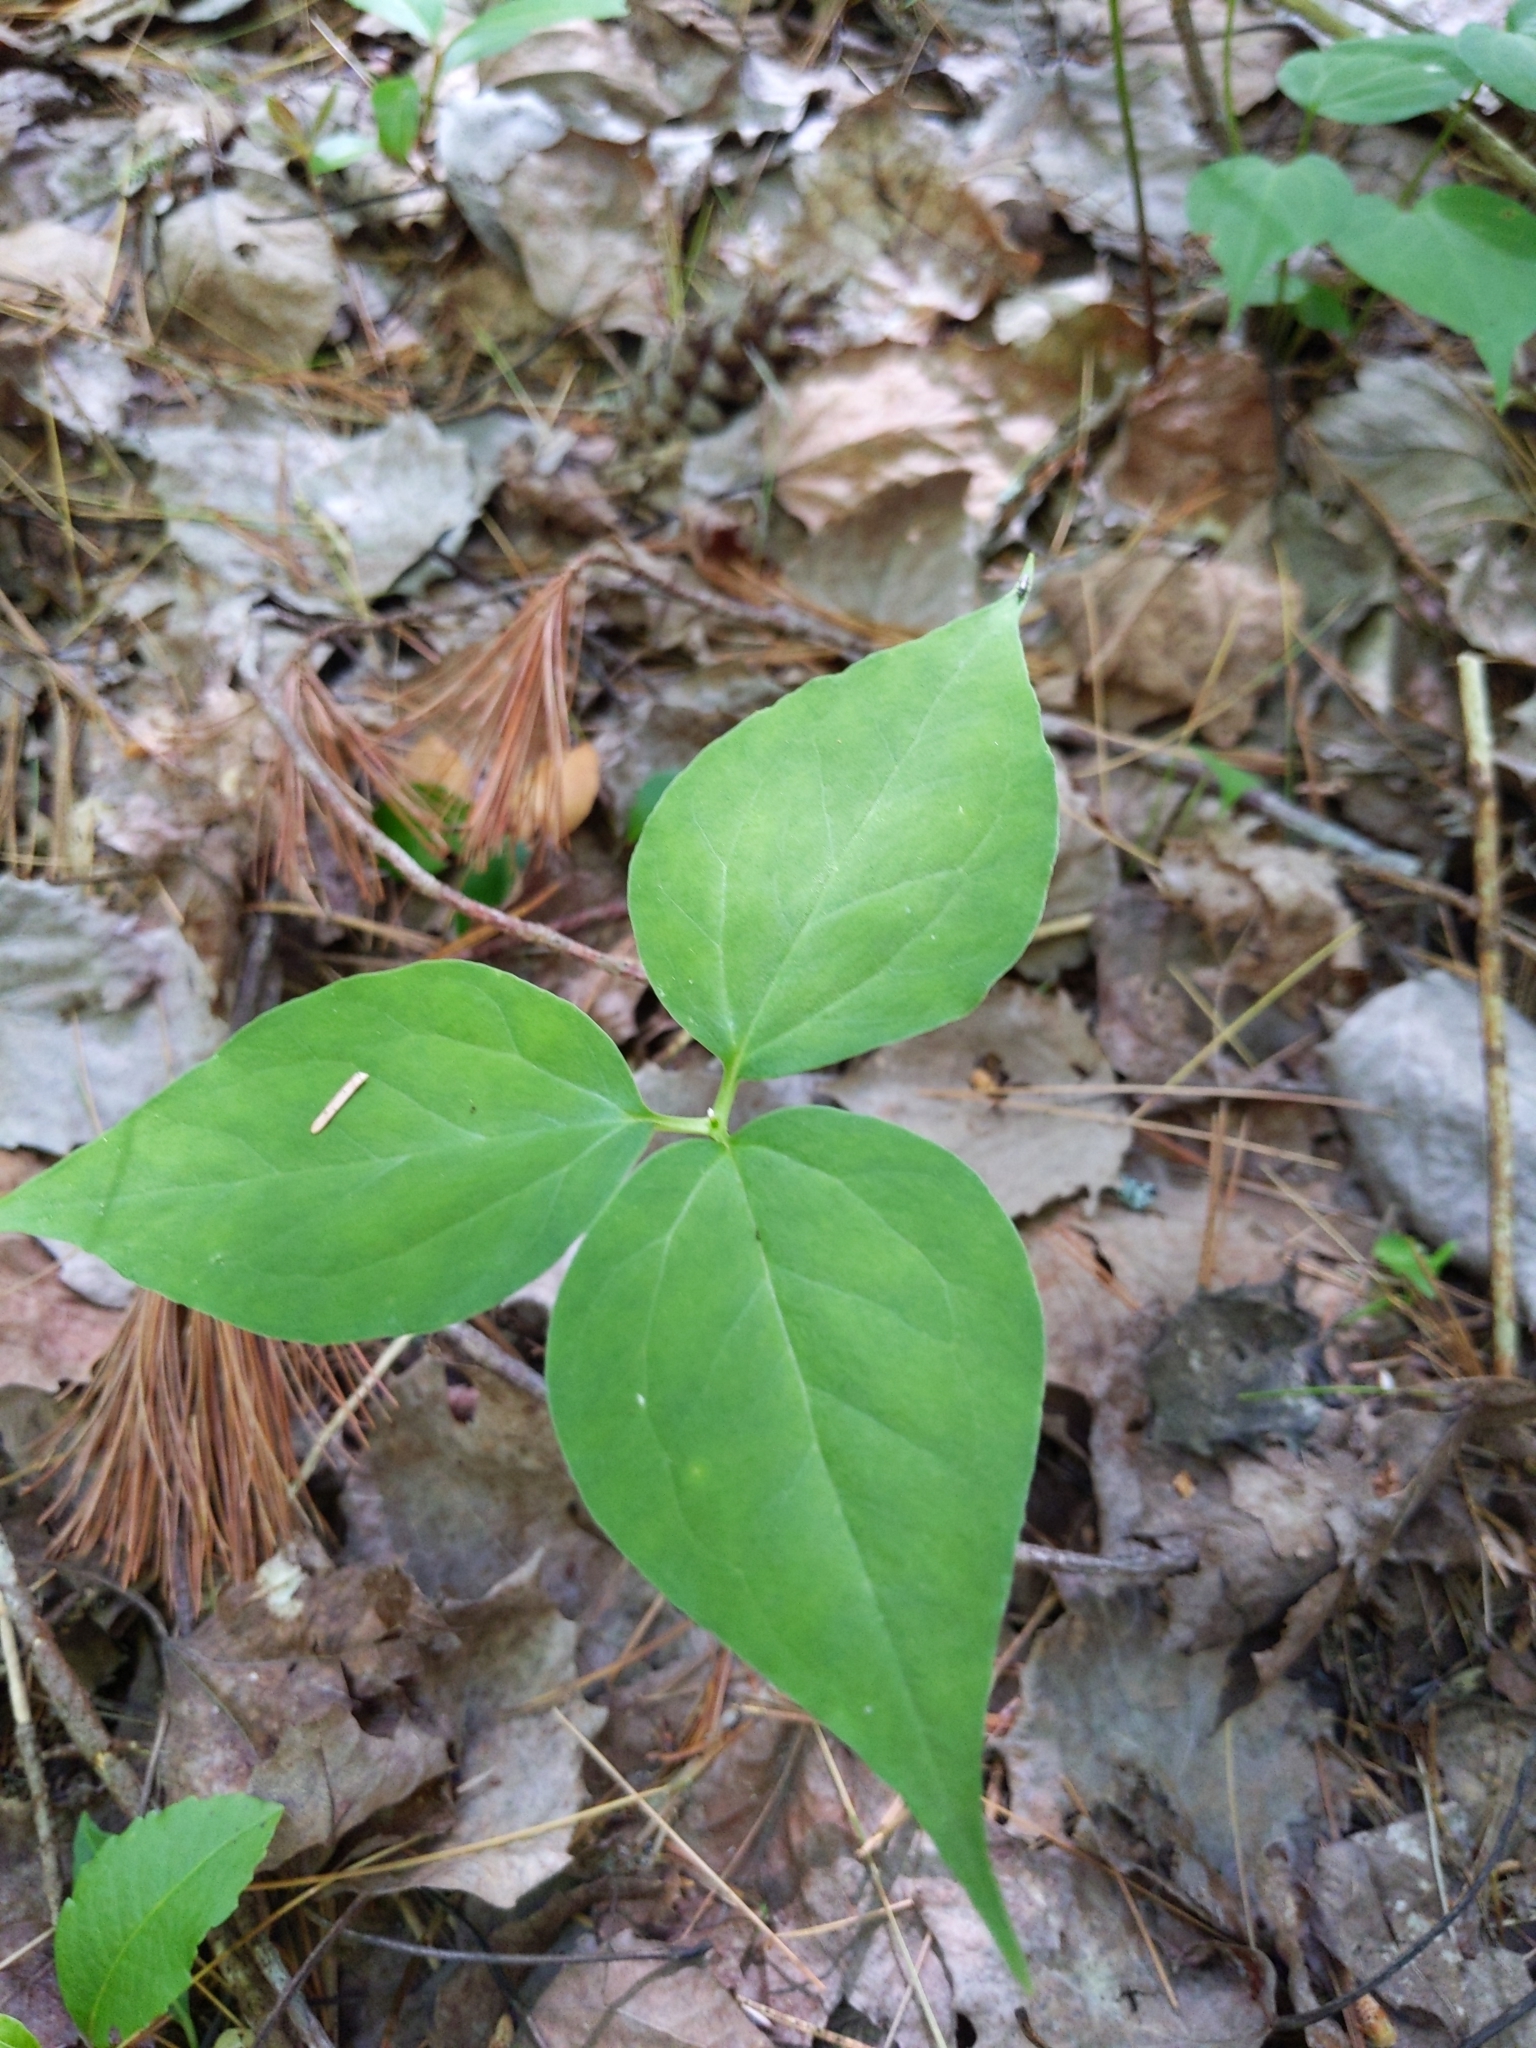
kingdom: Plantae
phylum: Tracheophyta
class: Liliopsida
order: Liliales
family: Melanthiaceae
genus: Trillium
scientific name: Trillium undulatum
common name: Paint trillium
